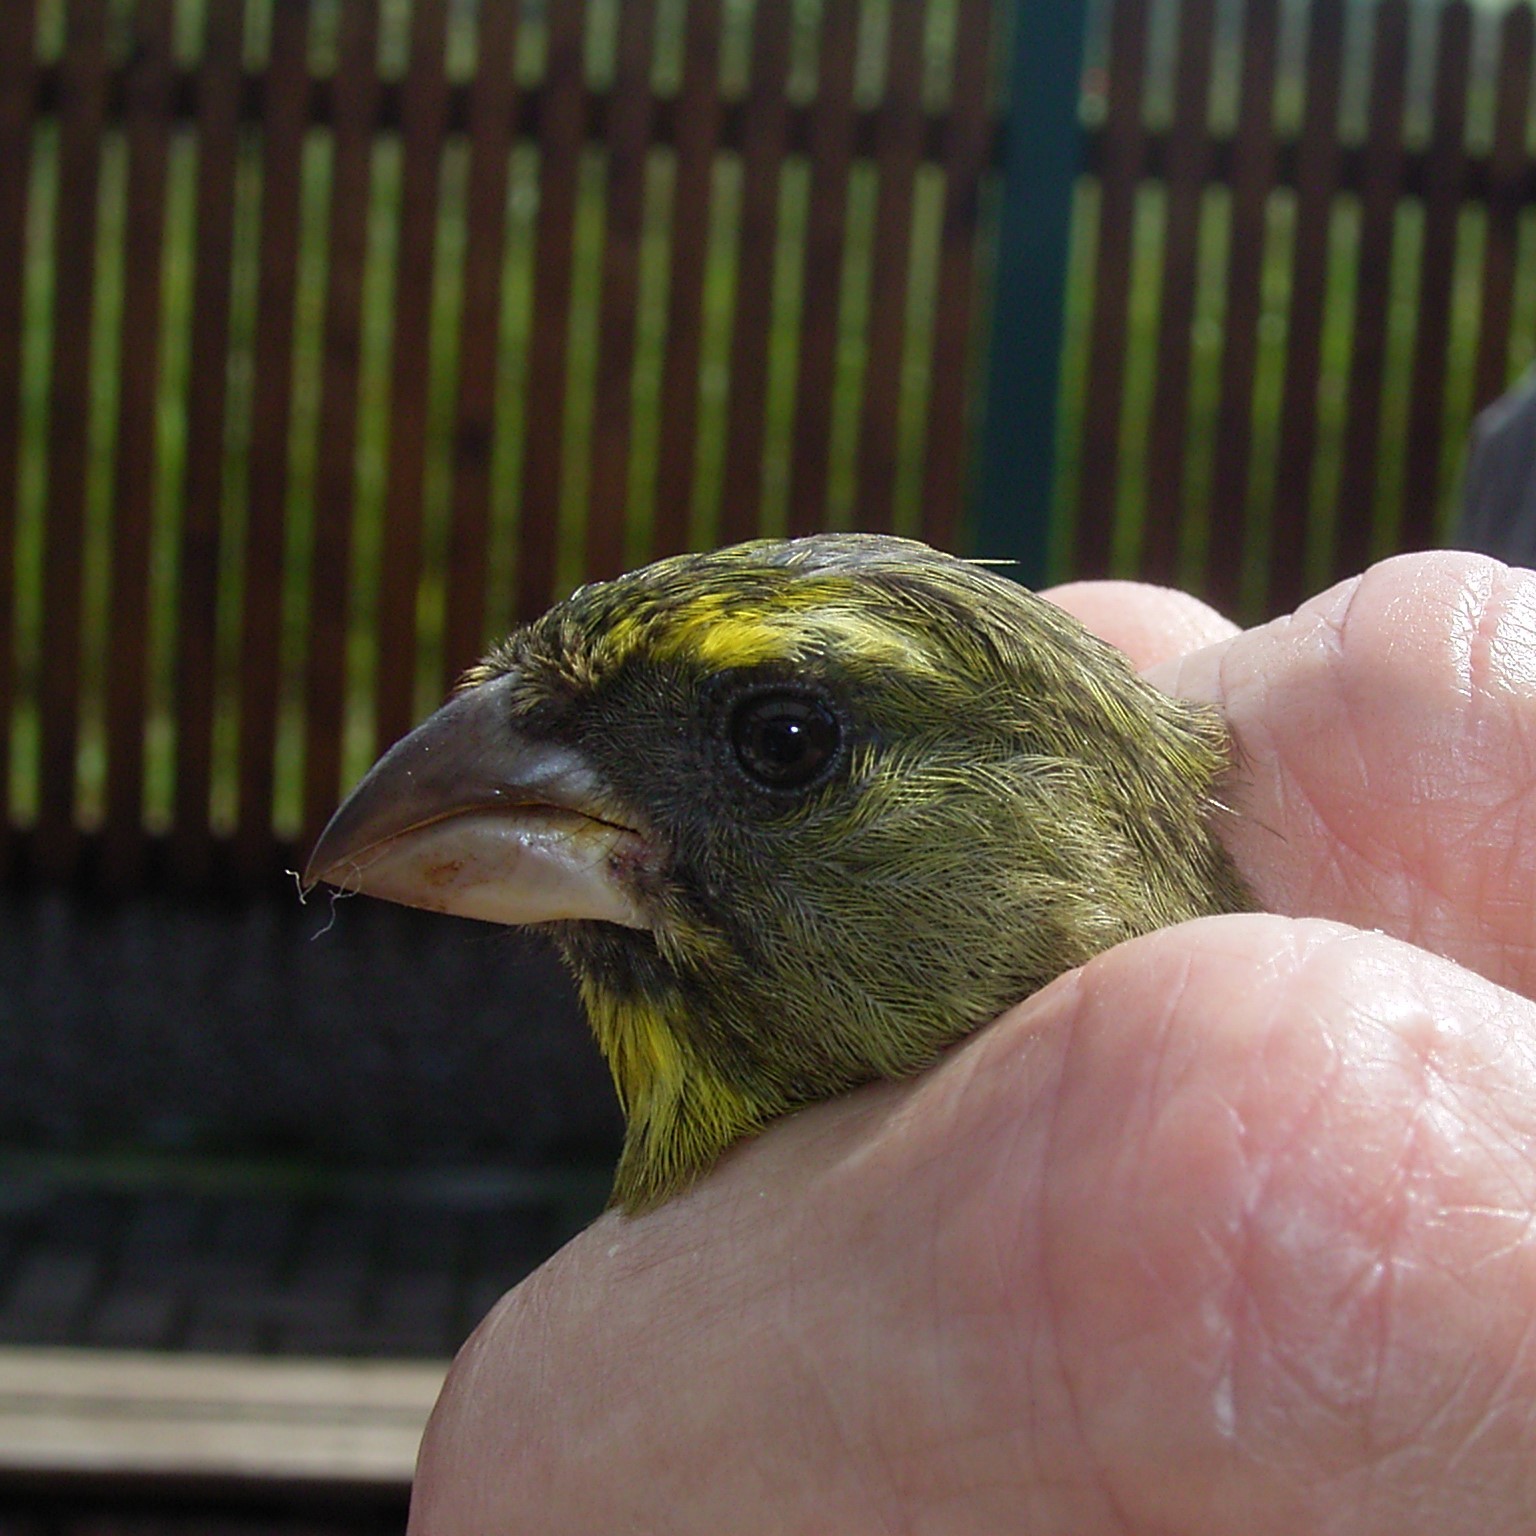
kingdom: Animalia
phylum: Chordata
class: Aves
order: Passeriformes
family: Fringillidae
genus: Crithagra
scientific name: Crithagra scotops
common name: Forest canary
